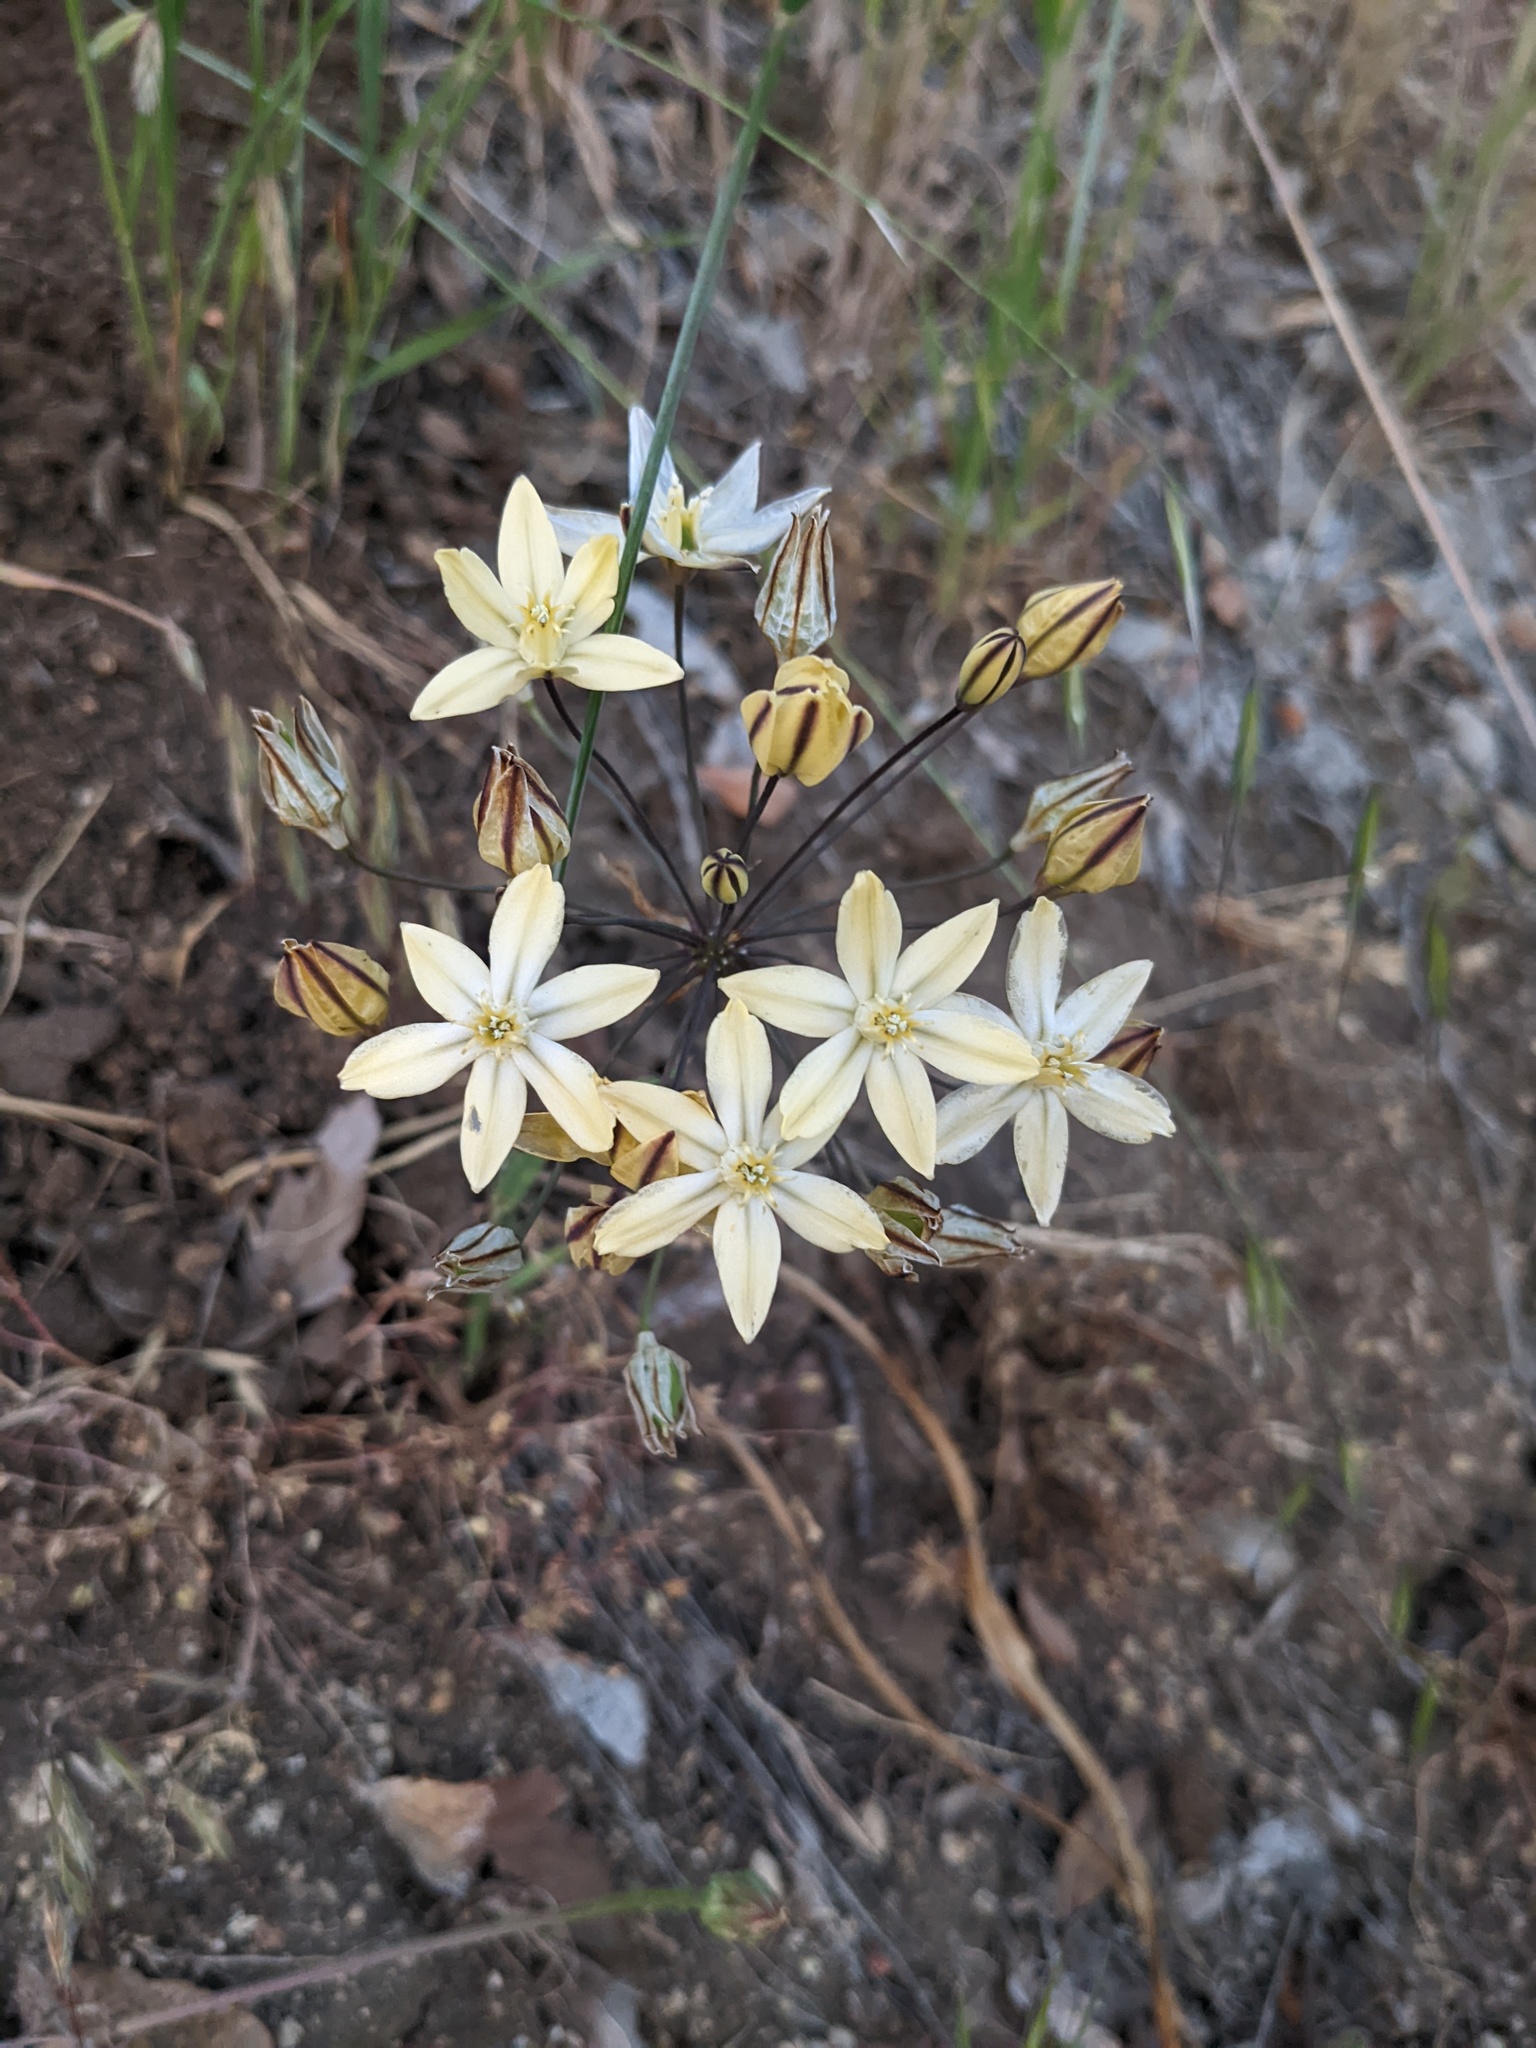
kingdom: Plantae
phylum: Tracheophyta
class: Liliopsida
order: Asparagales
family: Asparagaceae
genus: Triteleia
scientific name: Triteleia ixioides
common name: Yellow-brodiaea
